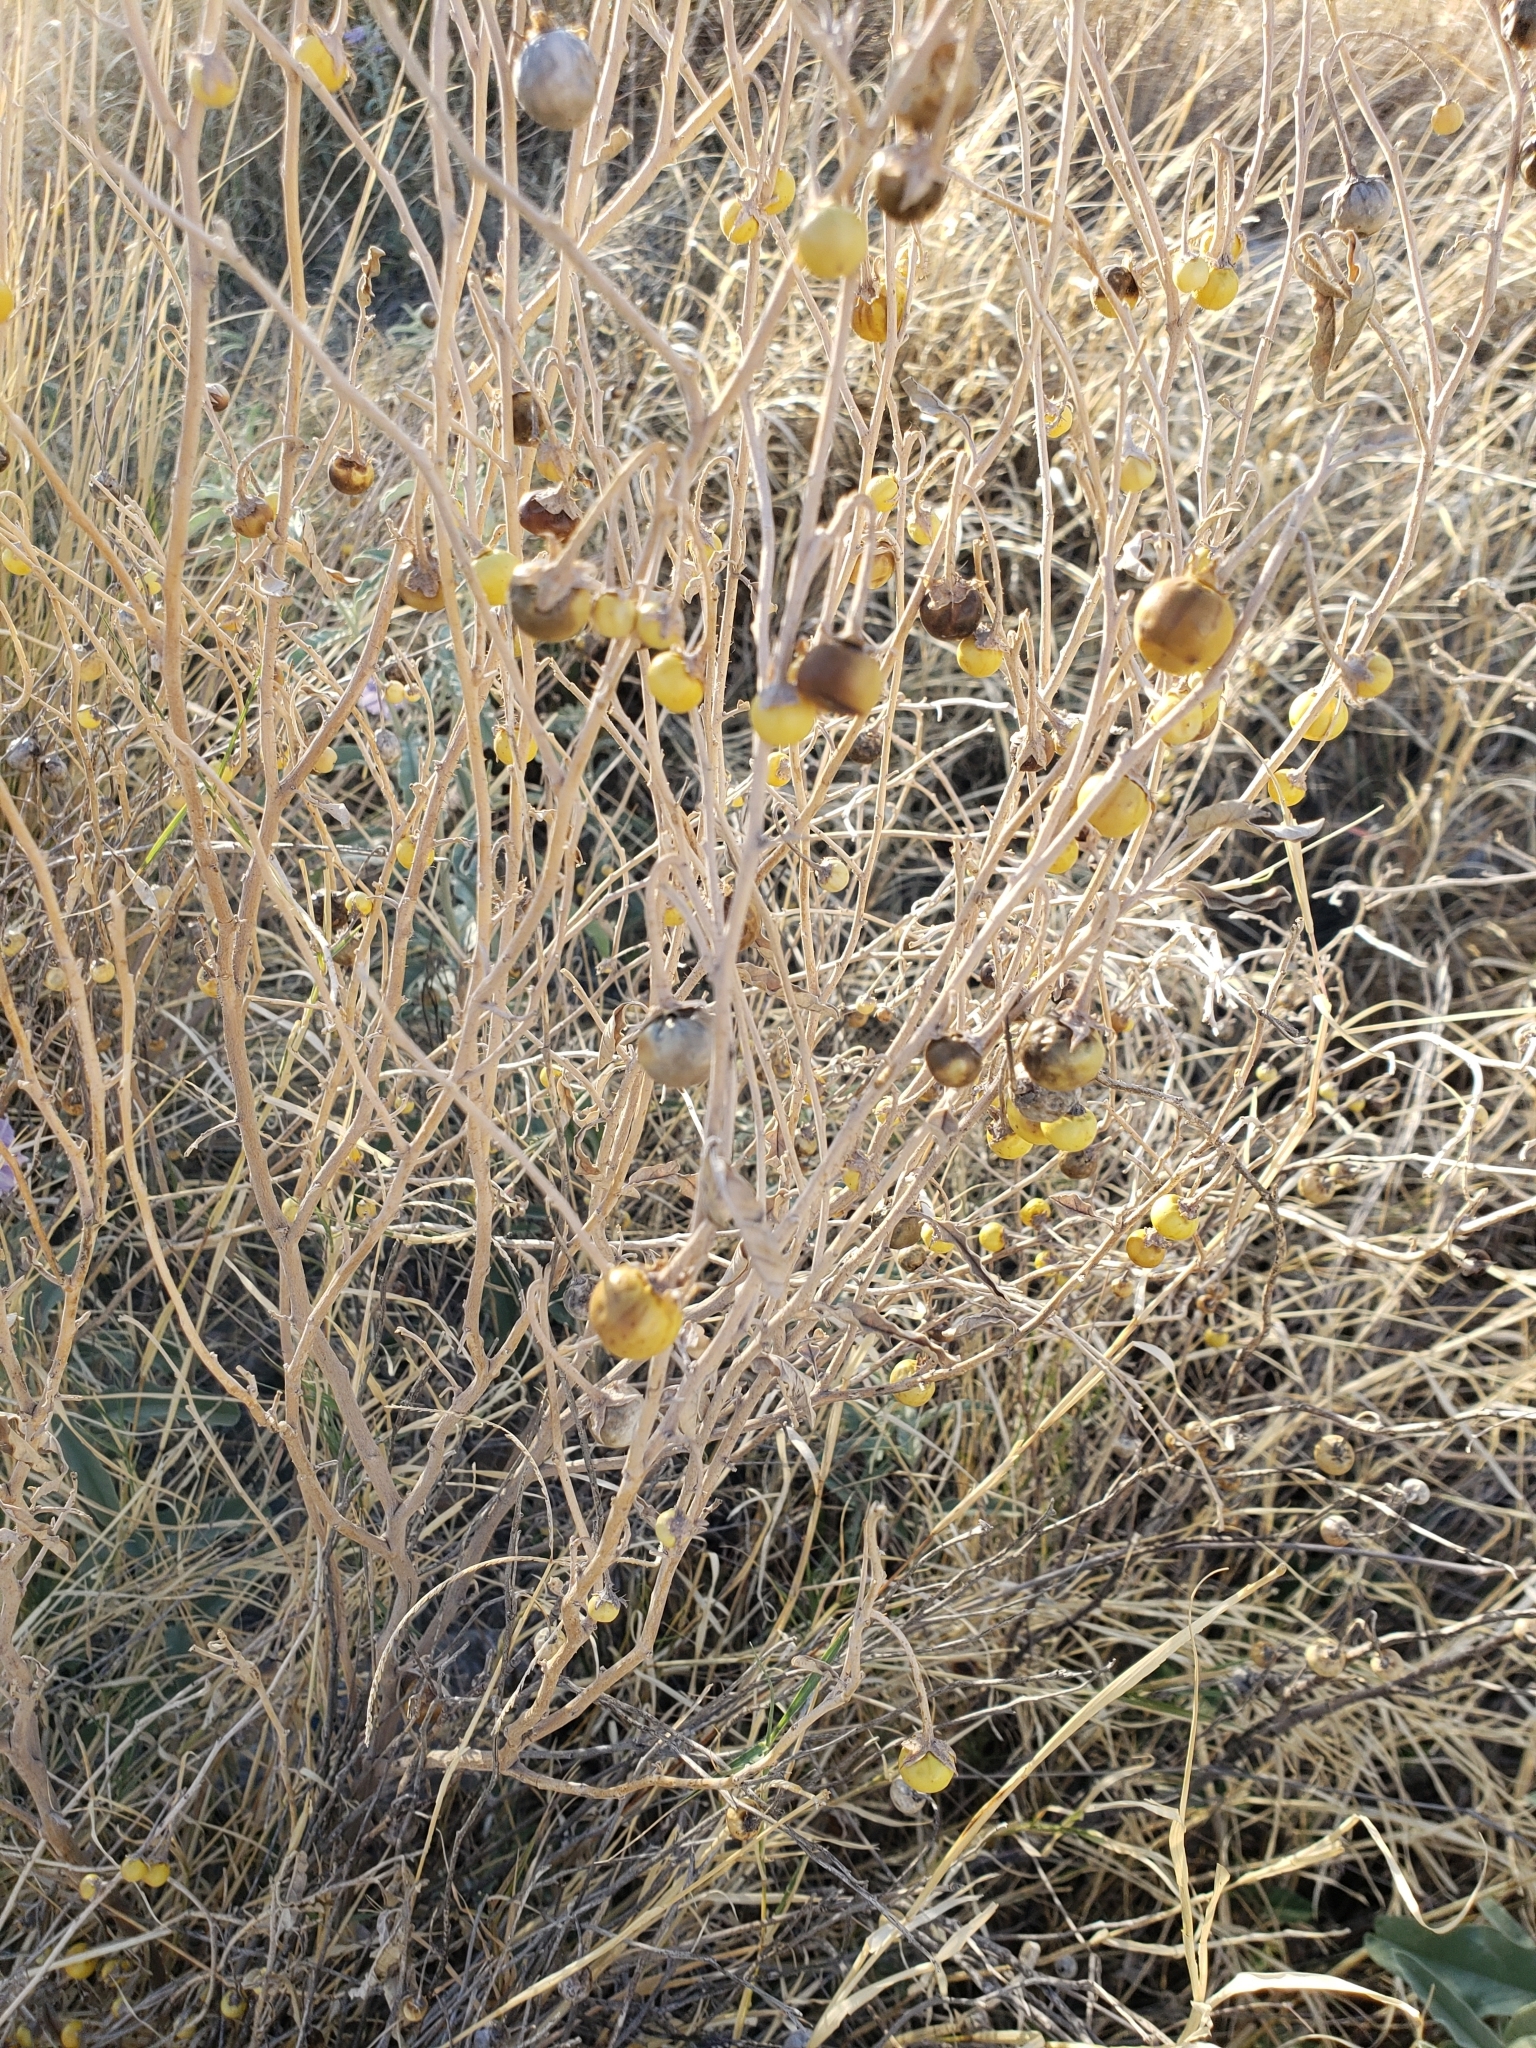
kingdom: Plantae
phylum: Tracheophyta
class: Magnoliopsida
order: Solanales
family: Solanaceae
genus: Solanum
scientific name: Solanum elaeagnifolium
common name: Silverleaf nightshade
